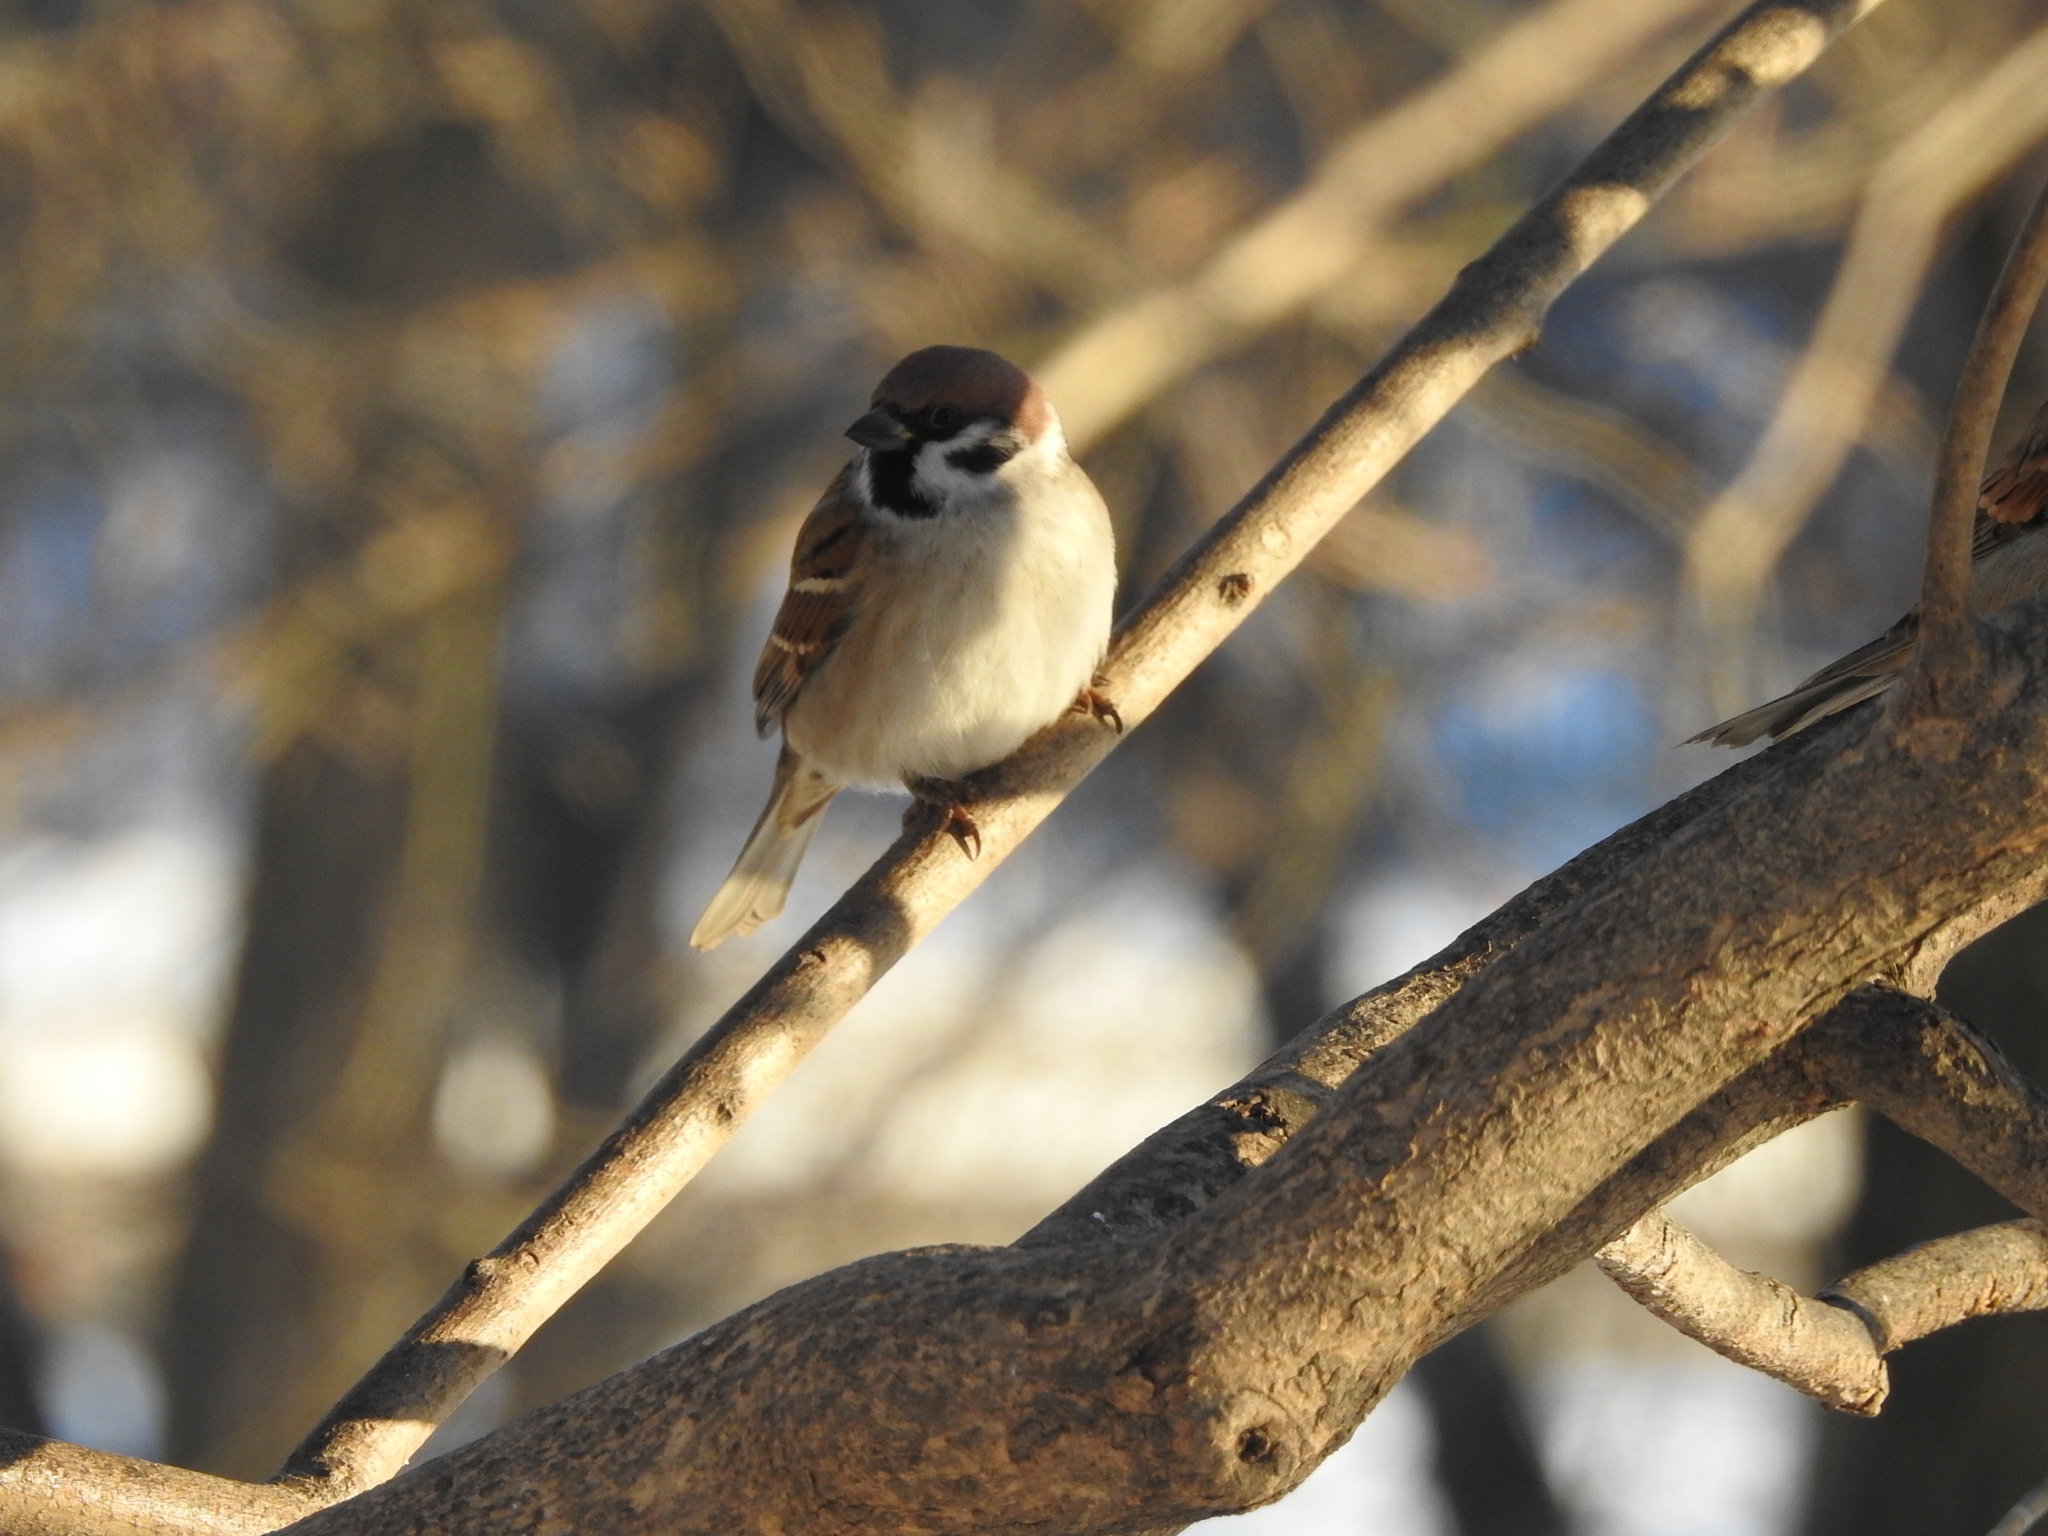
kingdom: Animalia
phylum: Chordata
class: Aves
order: Passeriformes
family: Passeridae
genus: Passer
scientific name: Passer montanus
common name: Eurasian tree sparrow
